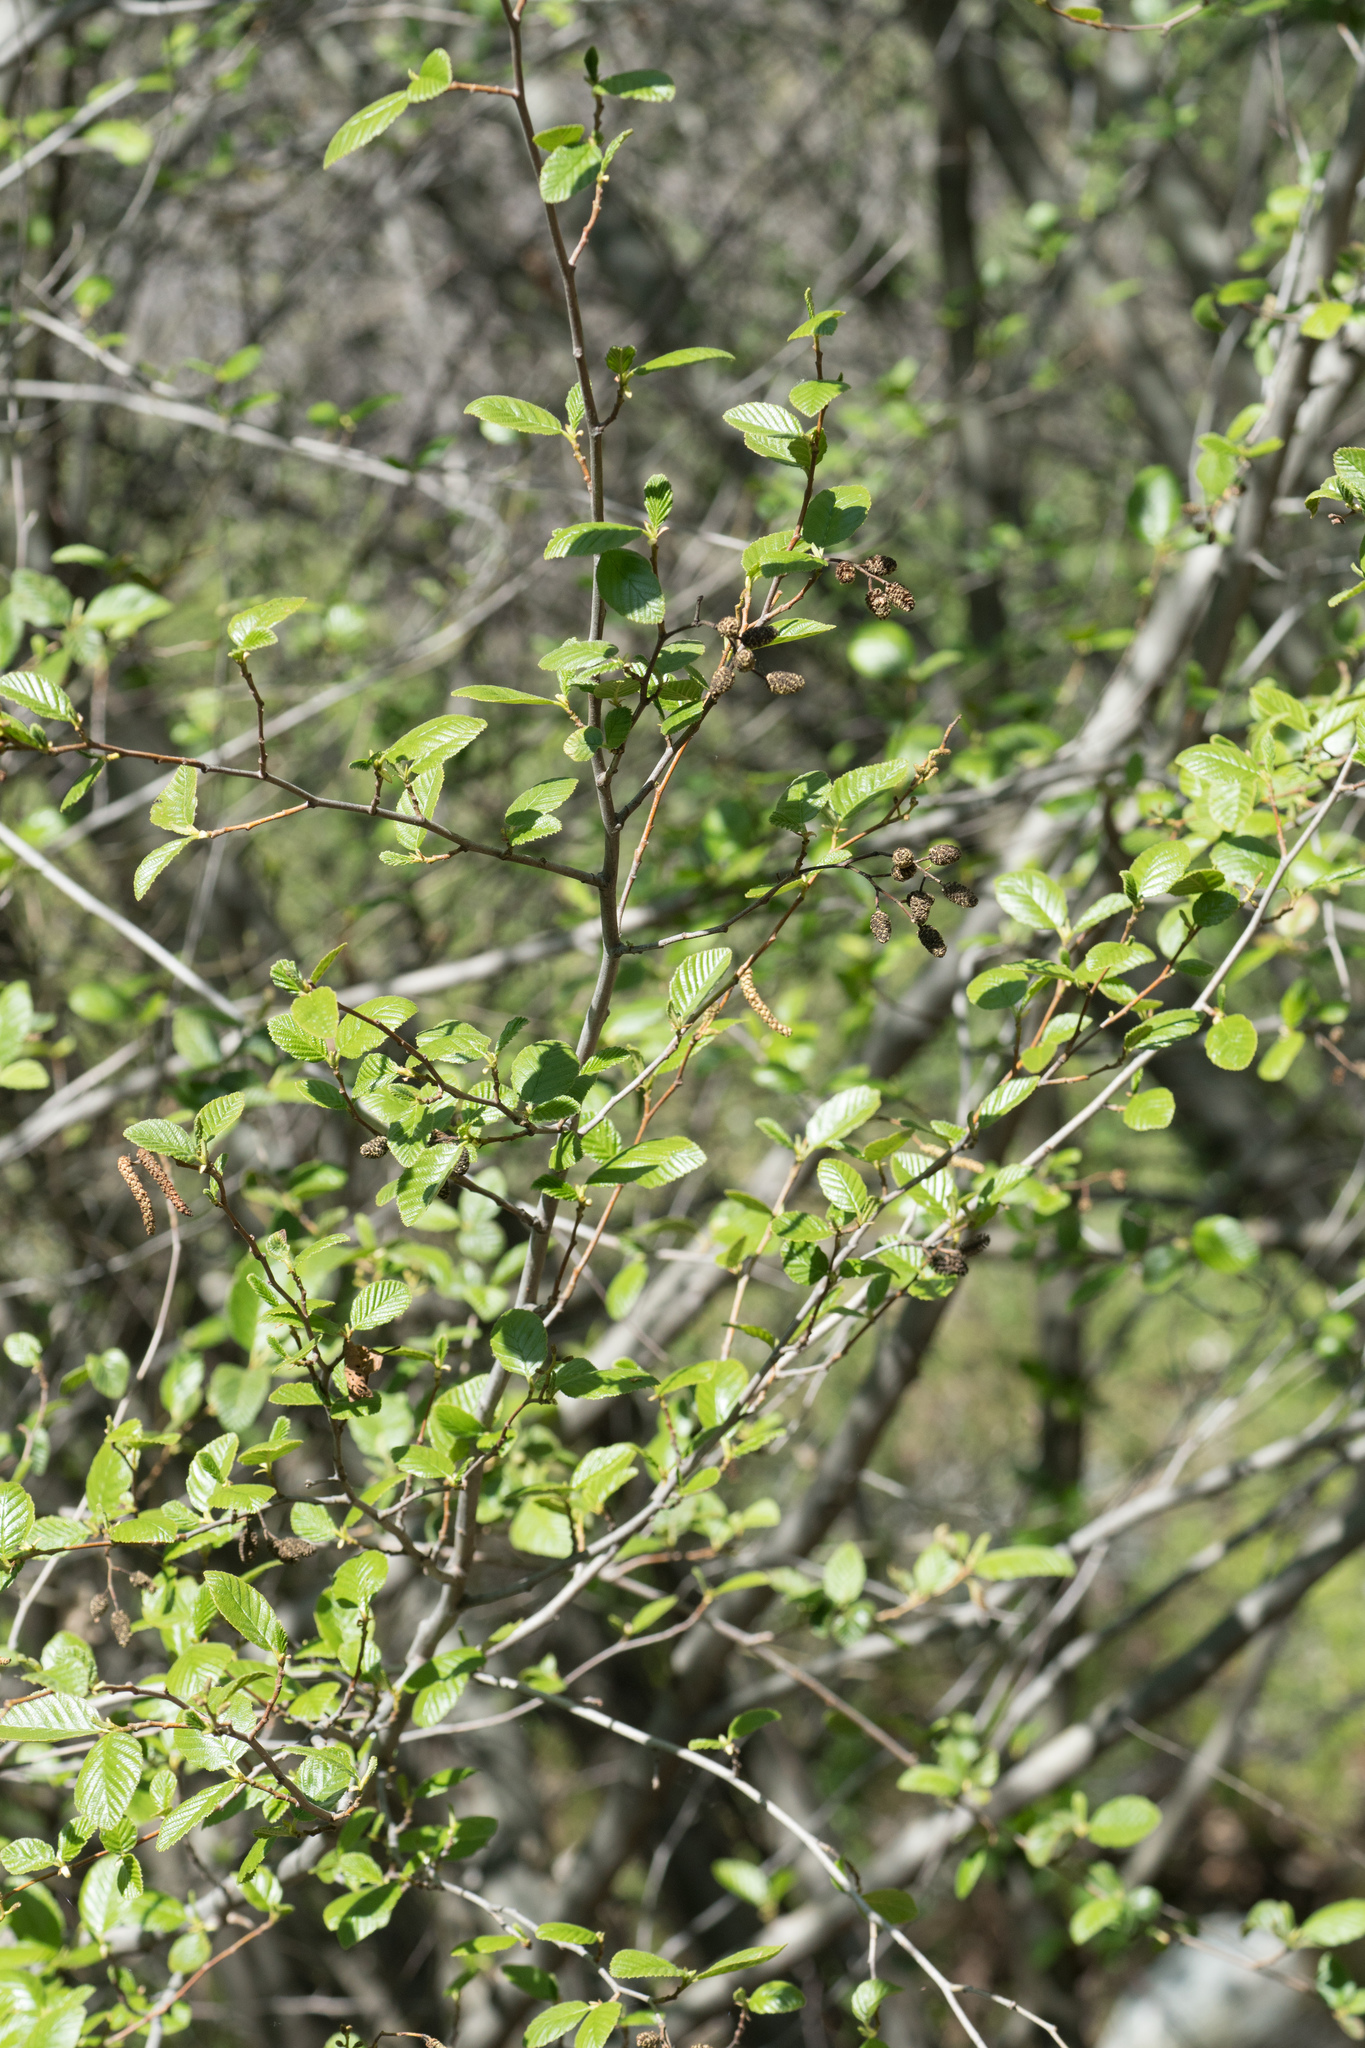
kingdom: Plantae
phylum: Tracheophyta
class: Magnoliopsida
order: Fagales
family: Betulaceae
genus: Alnus
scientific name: Alnus rhombifolia
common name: California alder
